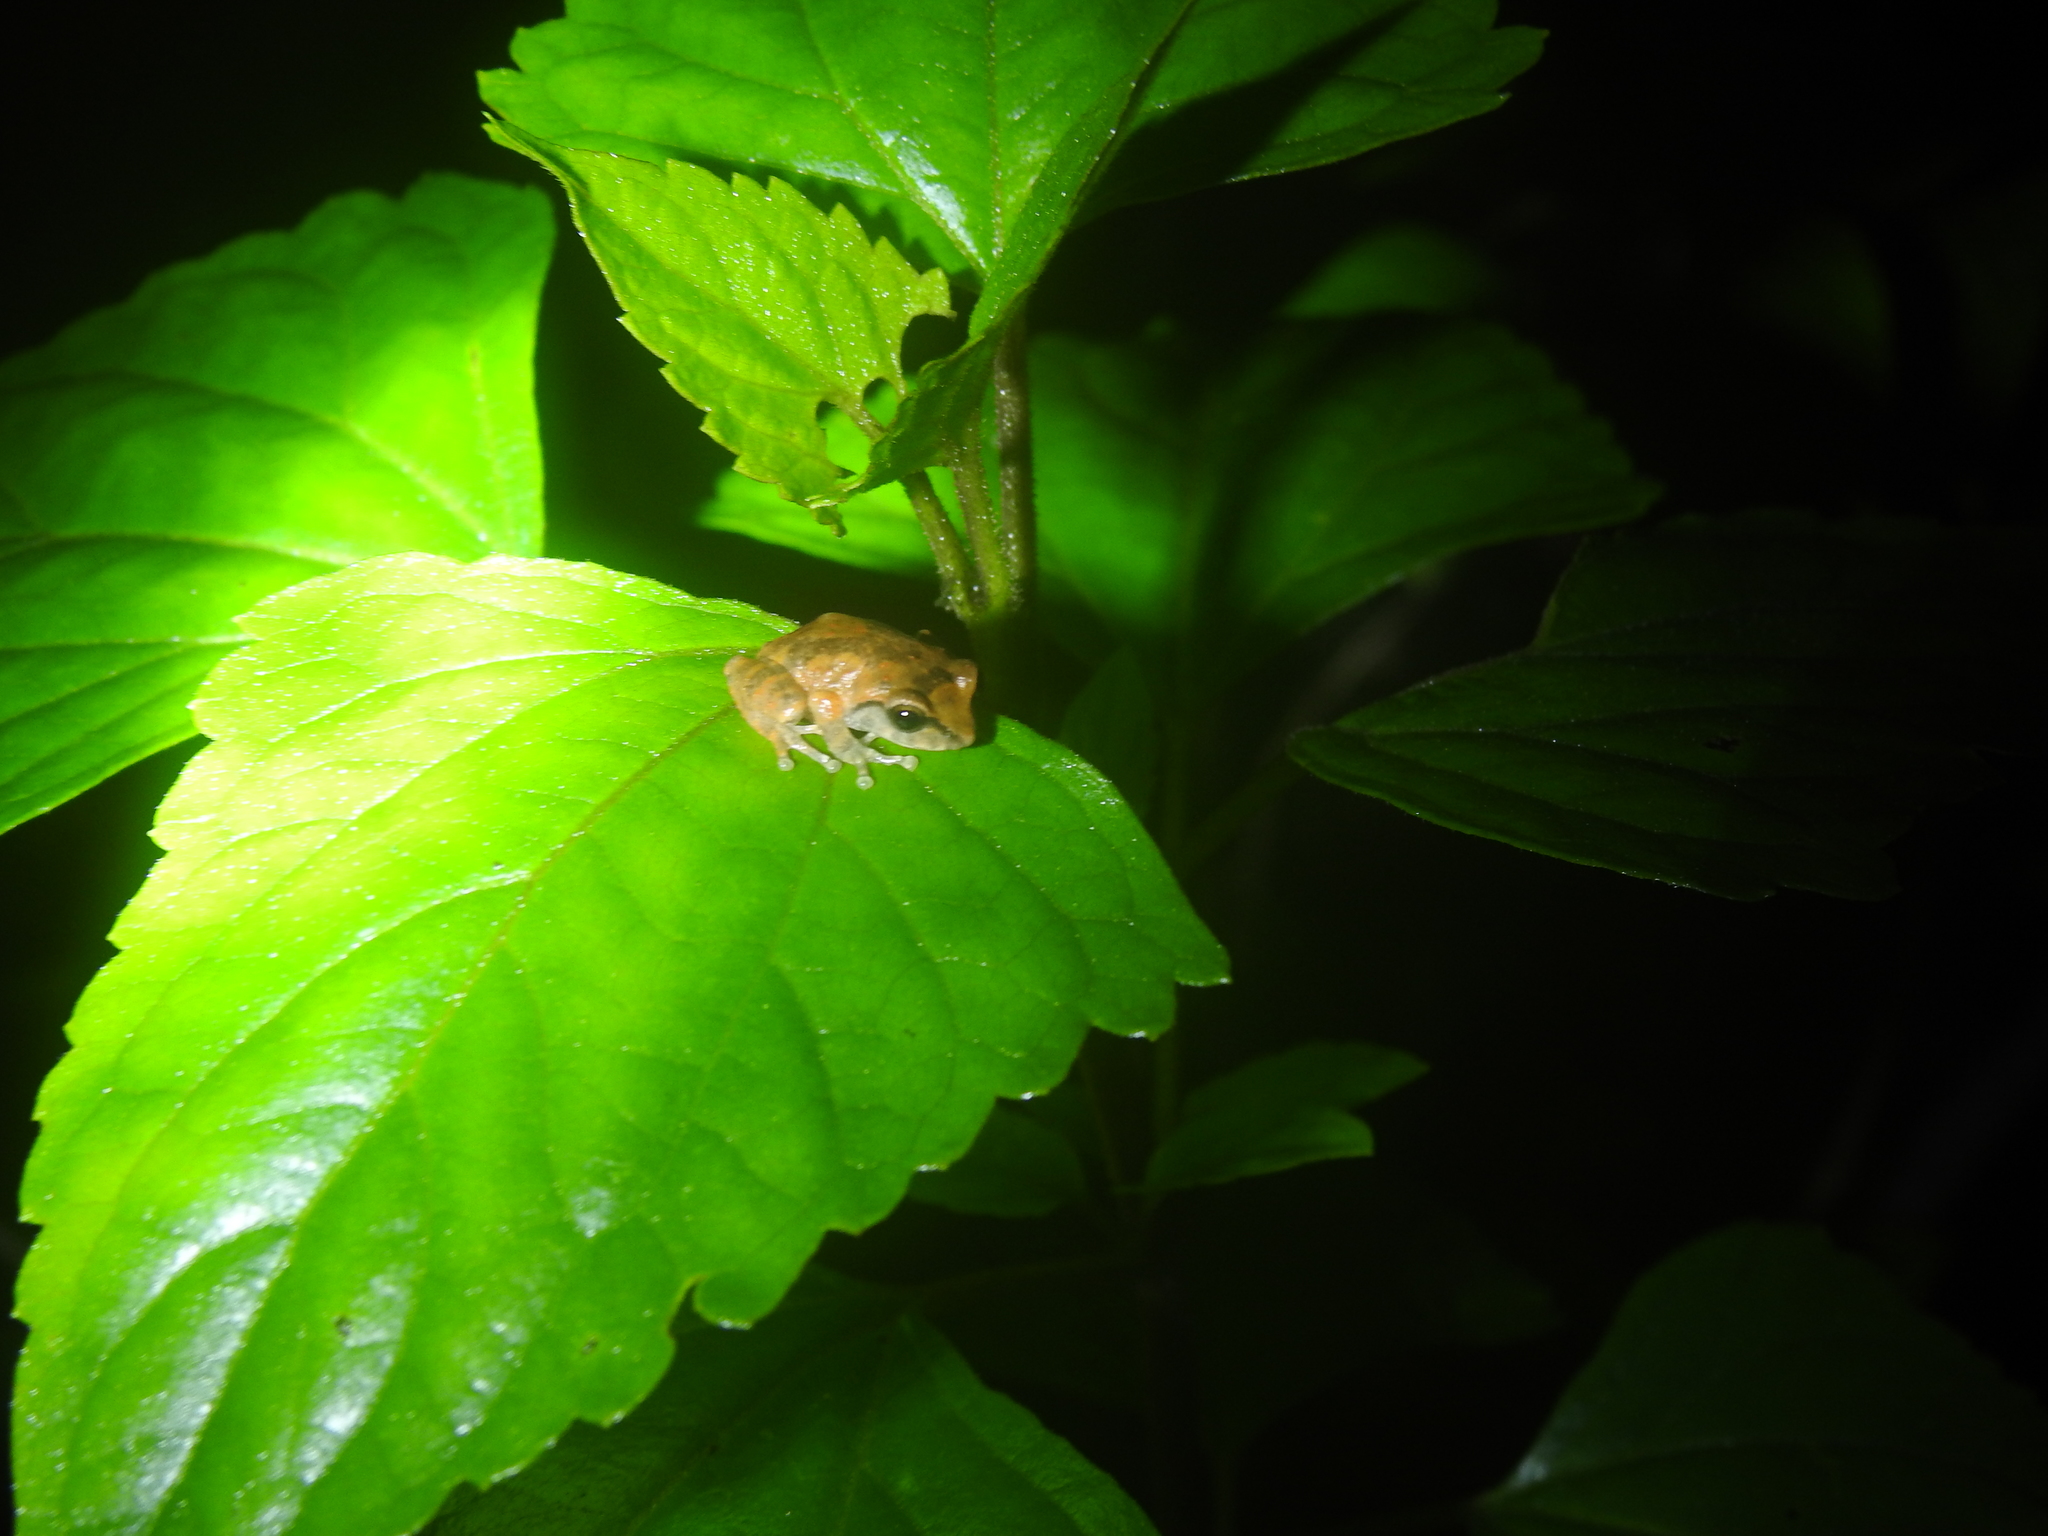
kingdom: Animalia
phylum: Chordata
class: Amphibia
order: Anura
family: Rhacophoridae
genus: Raorchestes
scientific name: Raorchestes dubois
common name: Koadaikanal bush frog
